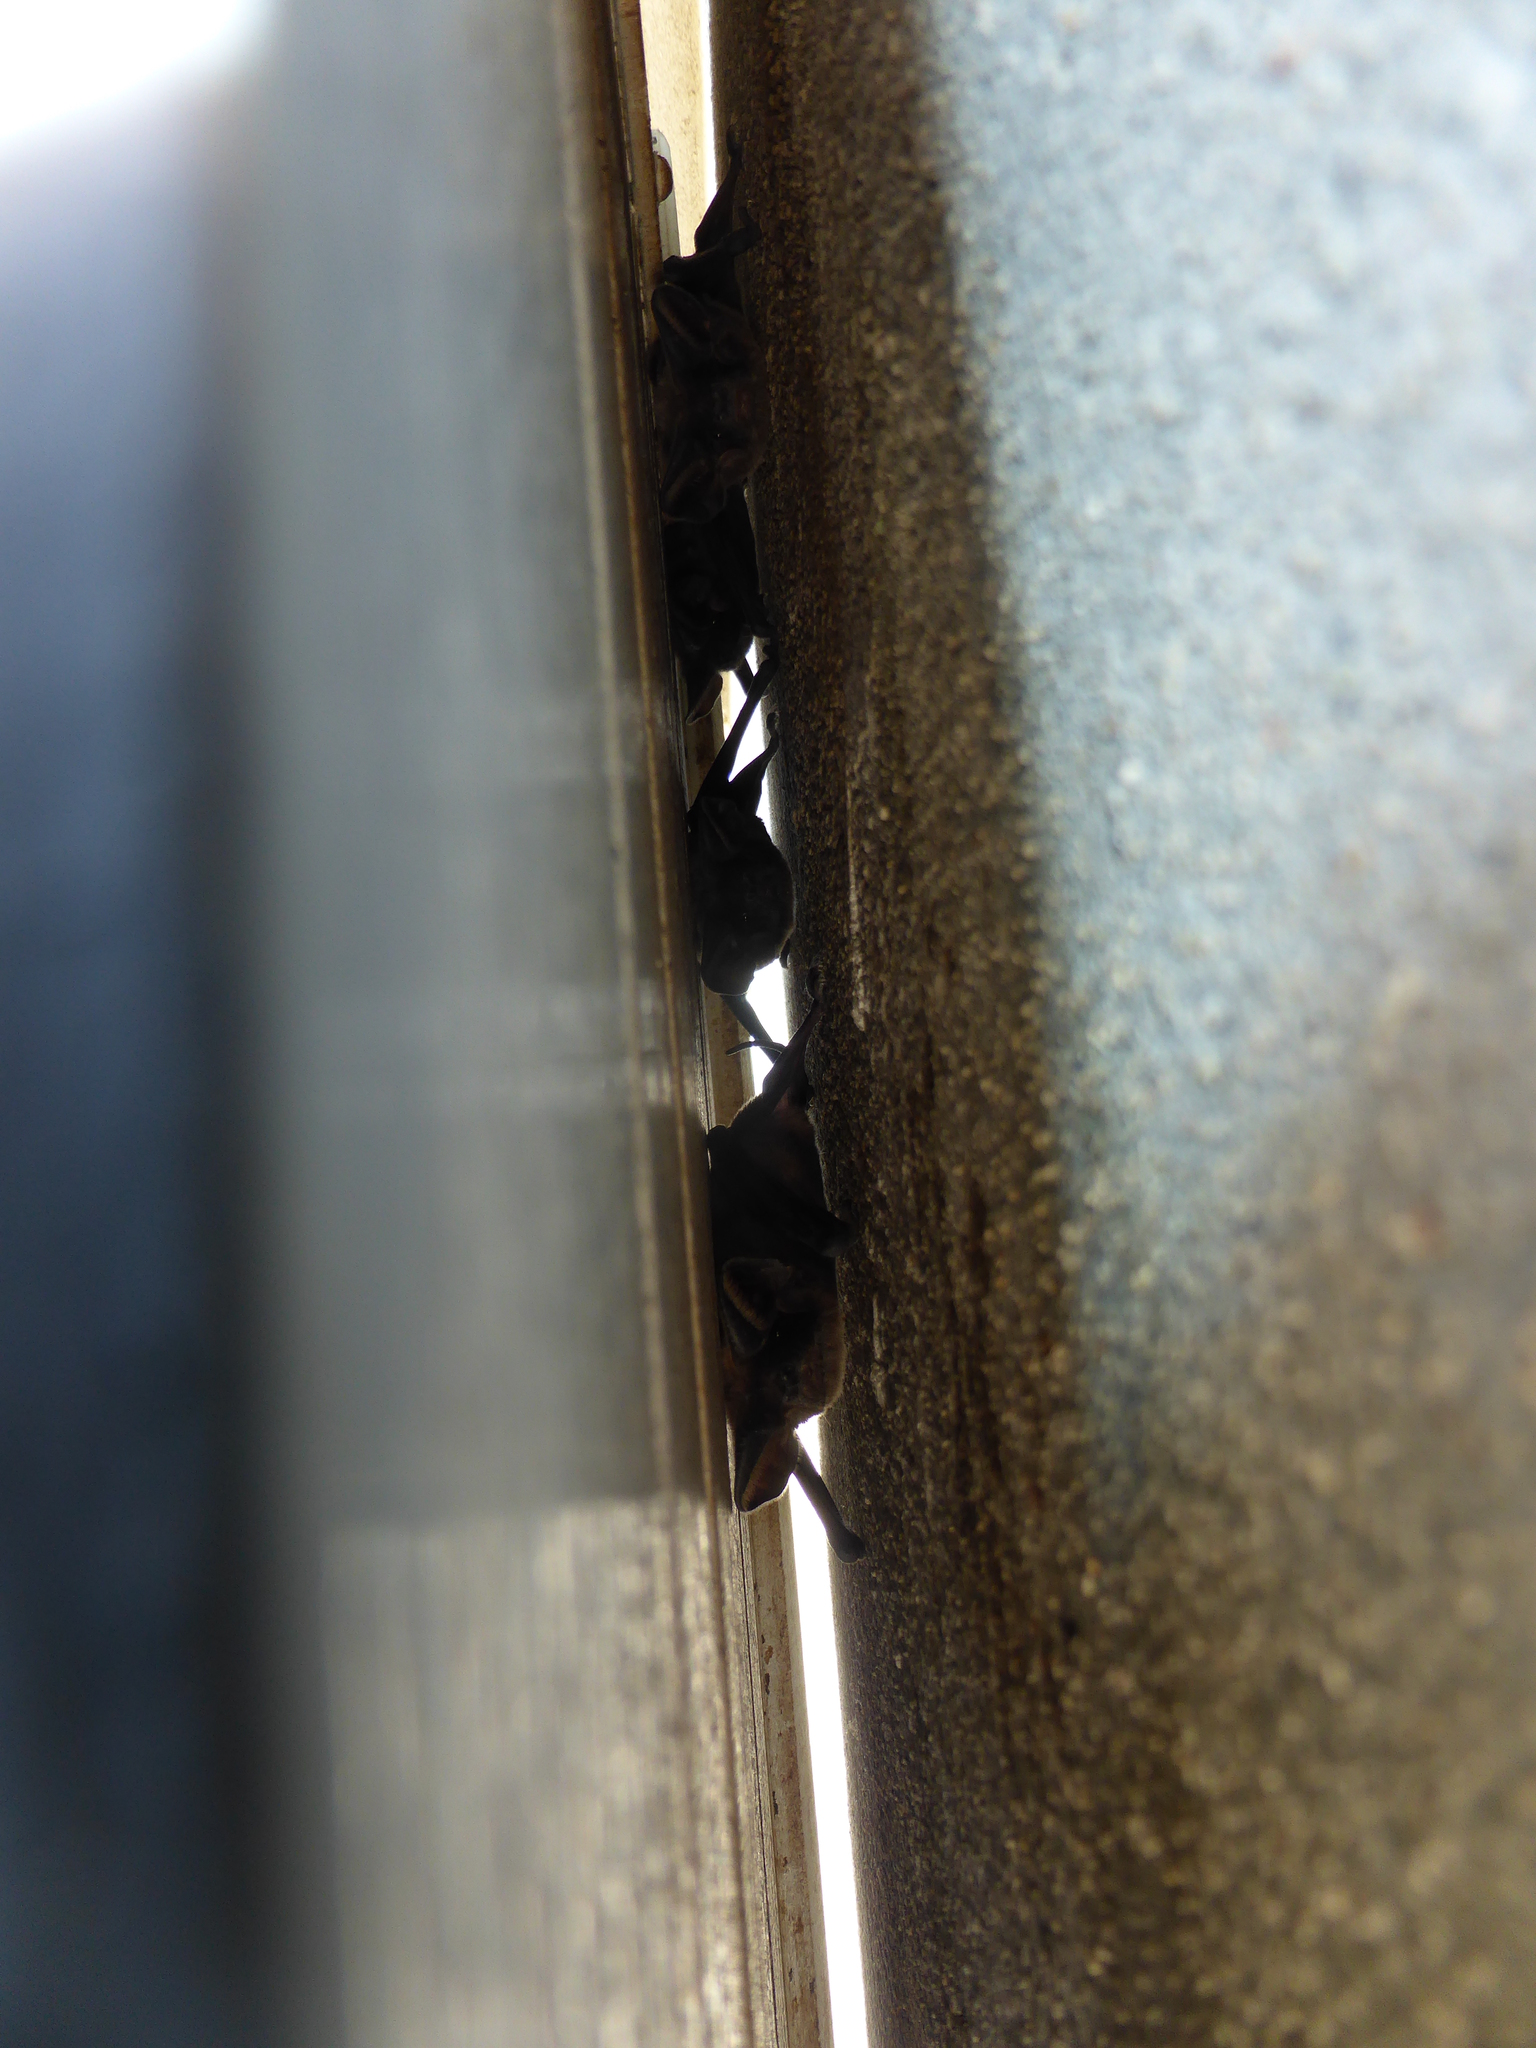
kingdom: Animalia
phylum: Chordata
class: Mammalia
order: Chiroptera
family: Molossidae
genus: Tadarida
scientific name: Tadarida teniotis
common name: European free-tailed bat
